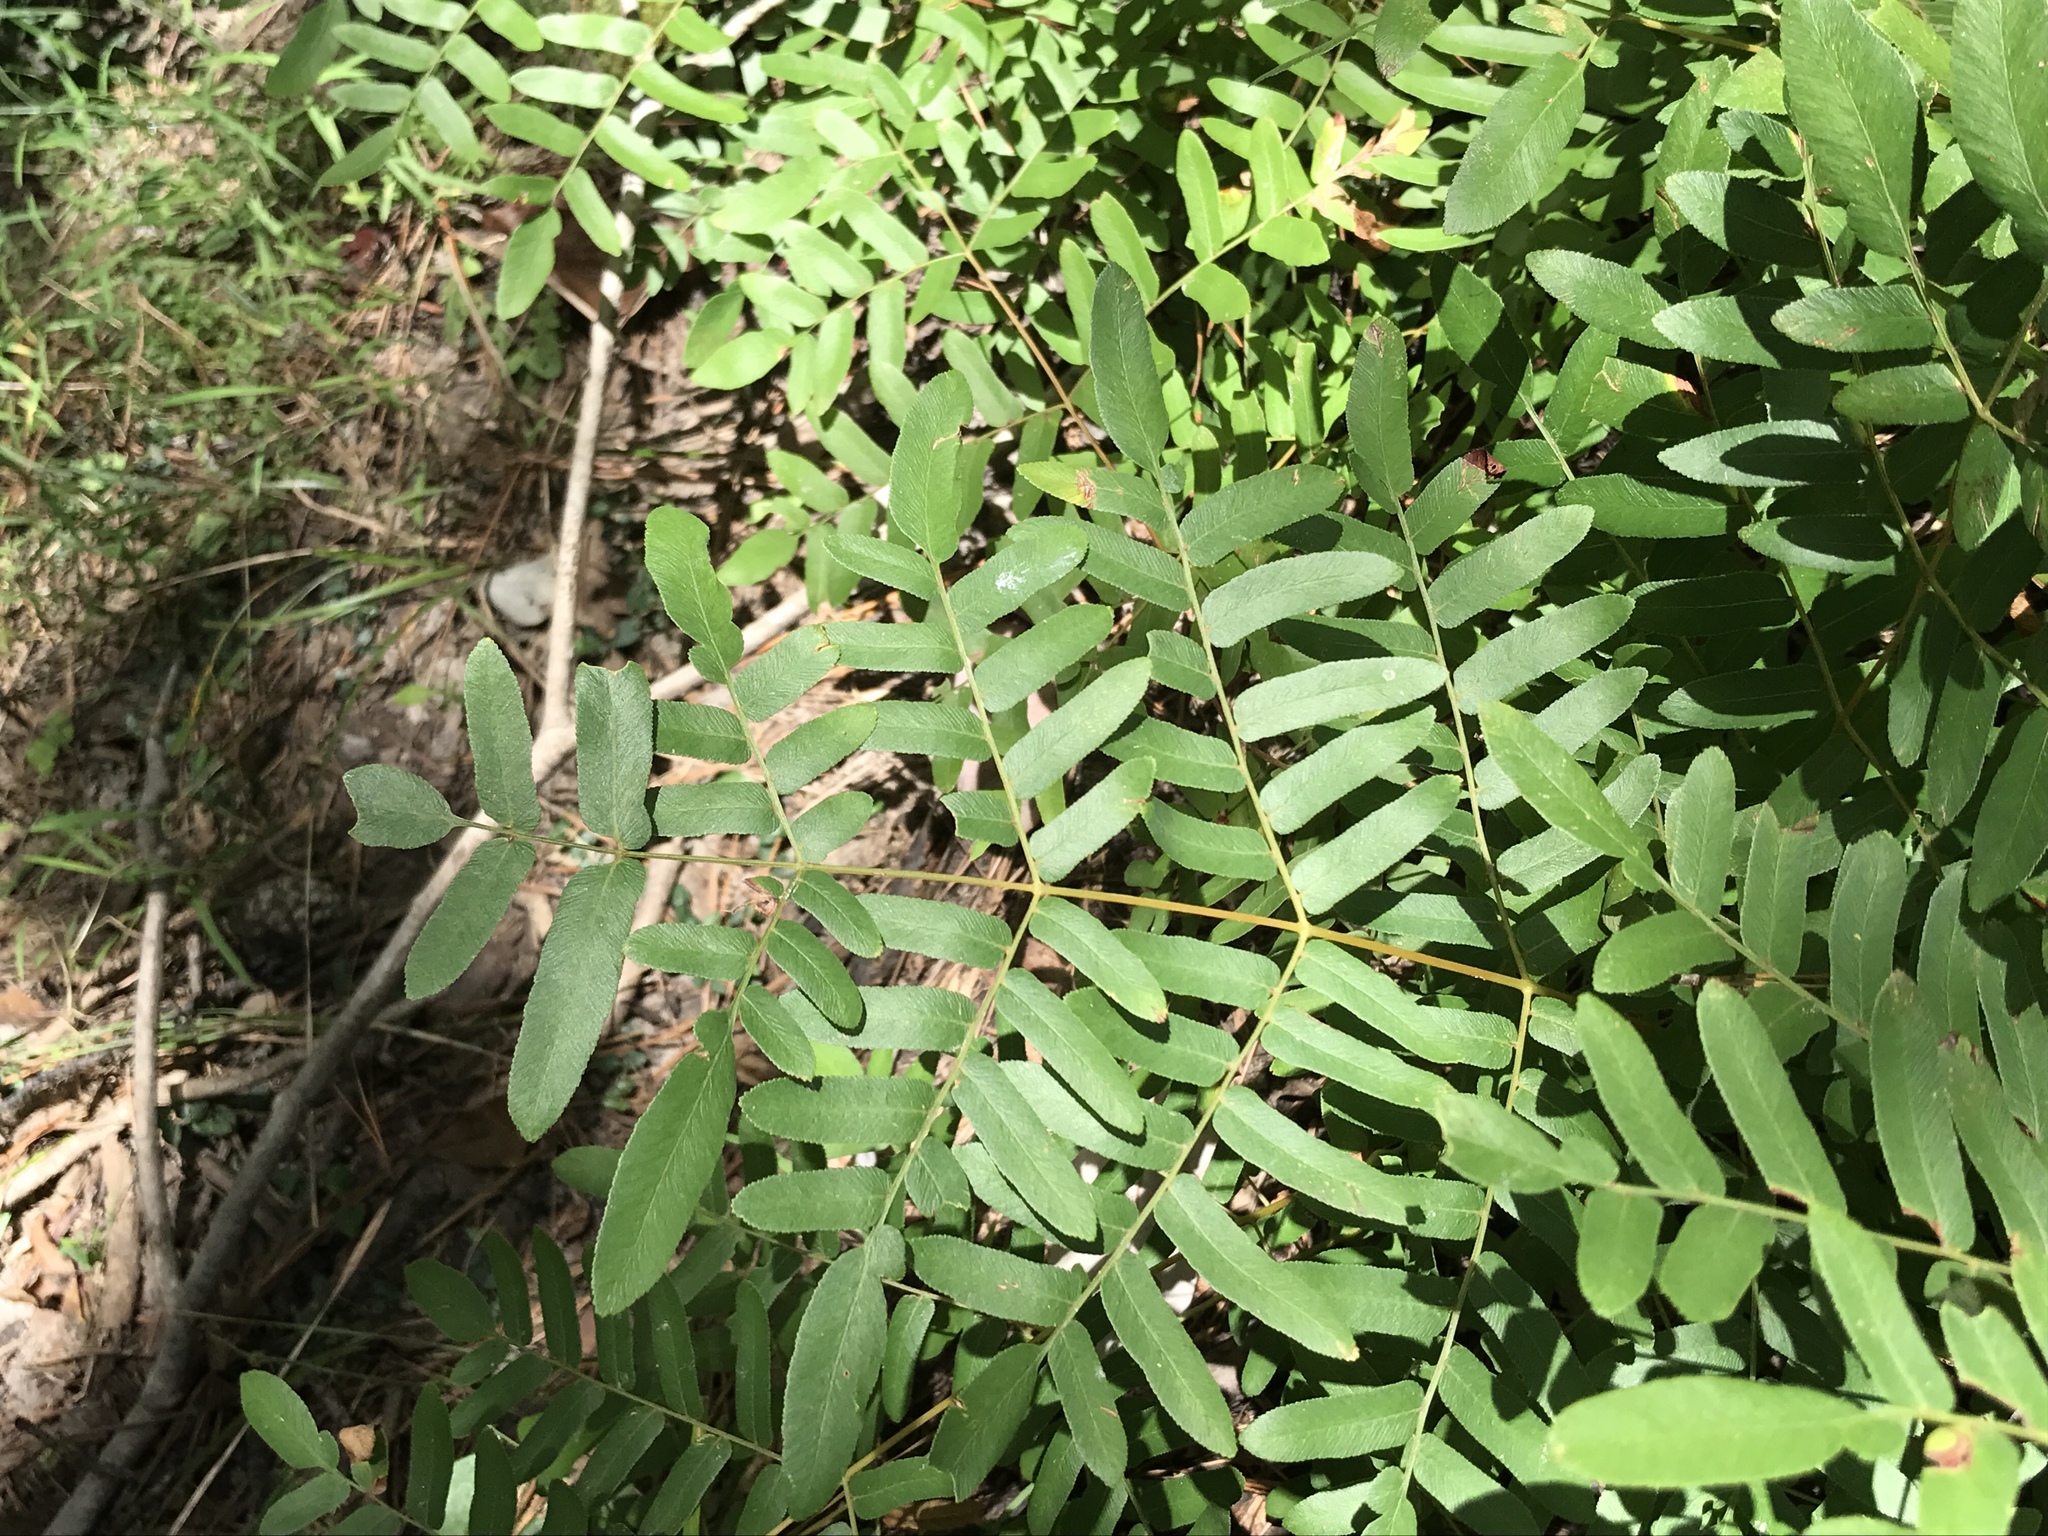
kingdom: Plantae
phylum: Tracheophyta
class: Polypodiopsida
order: Osmundales
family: Osmundaceae
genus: Osmunda
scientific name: Osmunda spectabilis
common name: American royal fern
